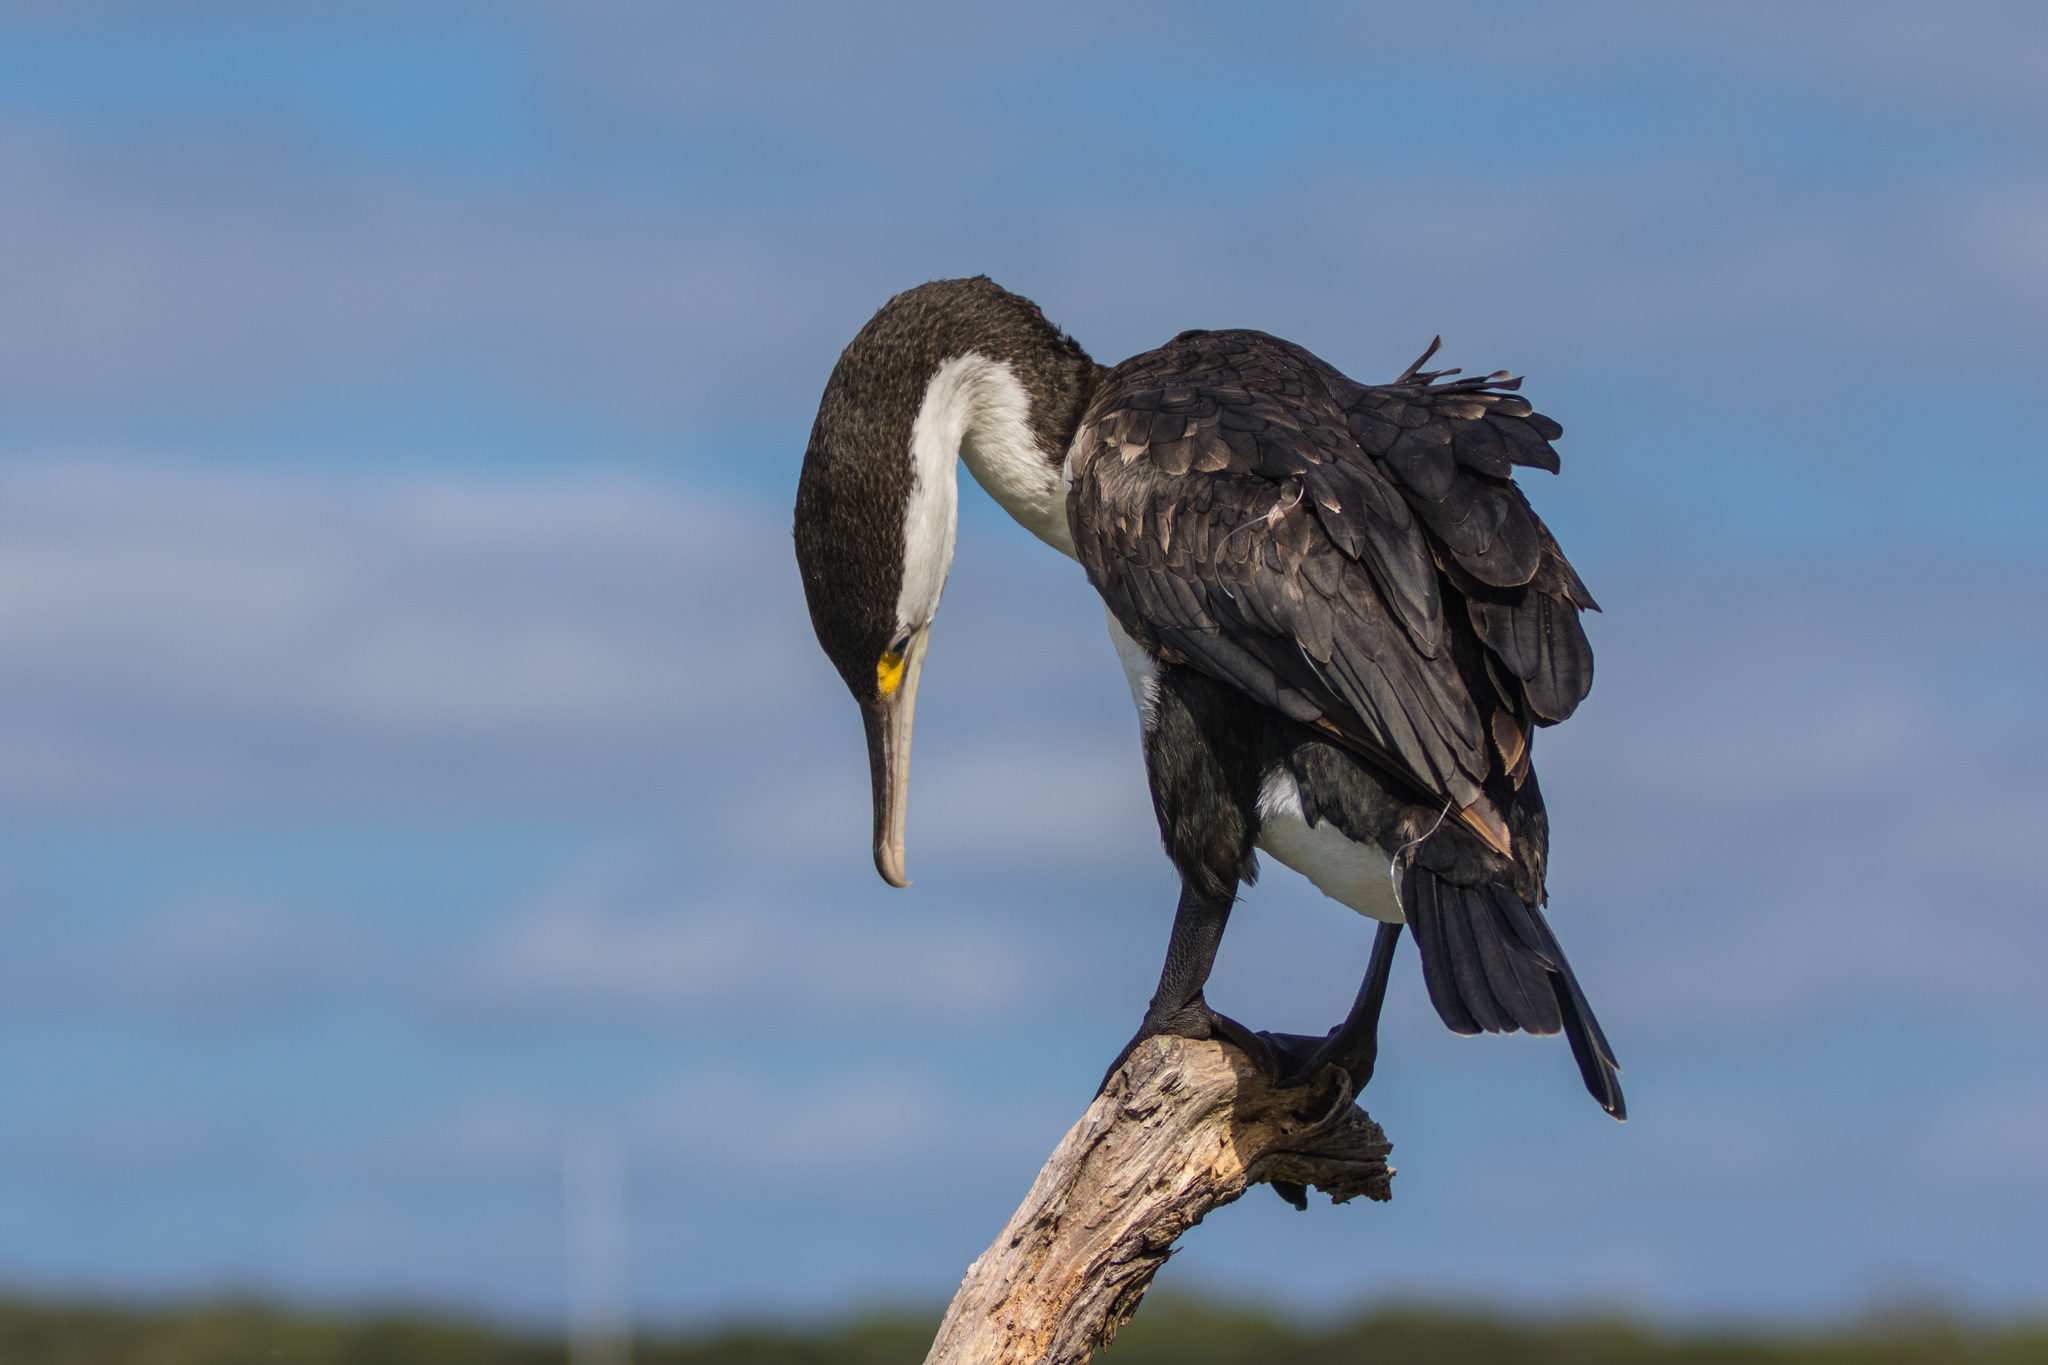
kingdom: Animalia
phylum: Chordata
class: Aves
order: Suliformes
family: Phalacrocoracidae
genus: Phalacrocorax
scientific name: Phalacrocorax varius
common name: Pied cormorant
